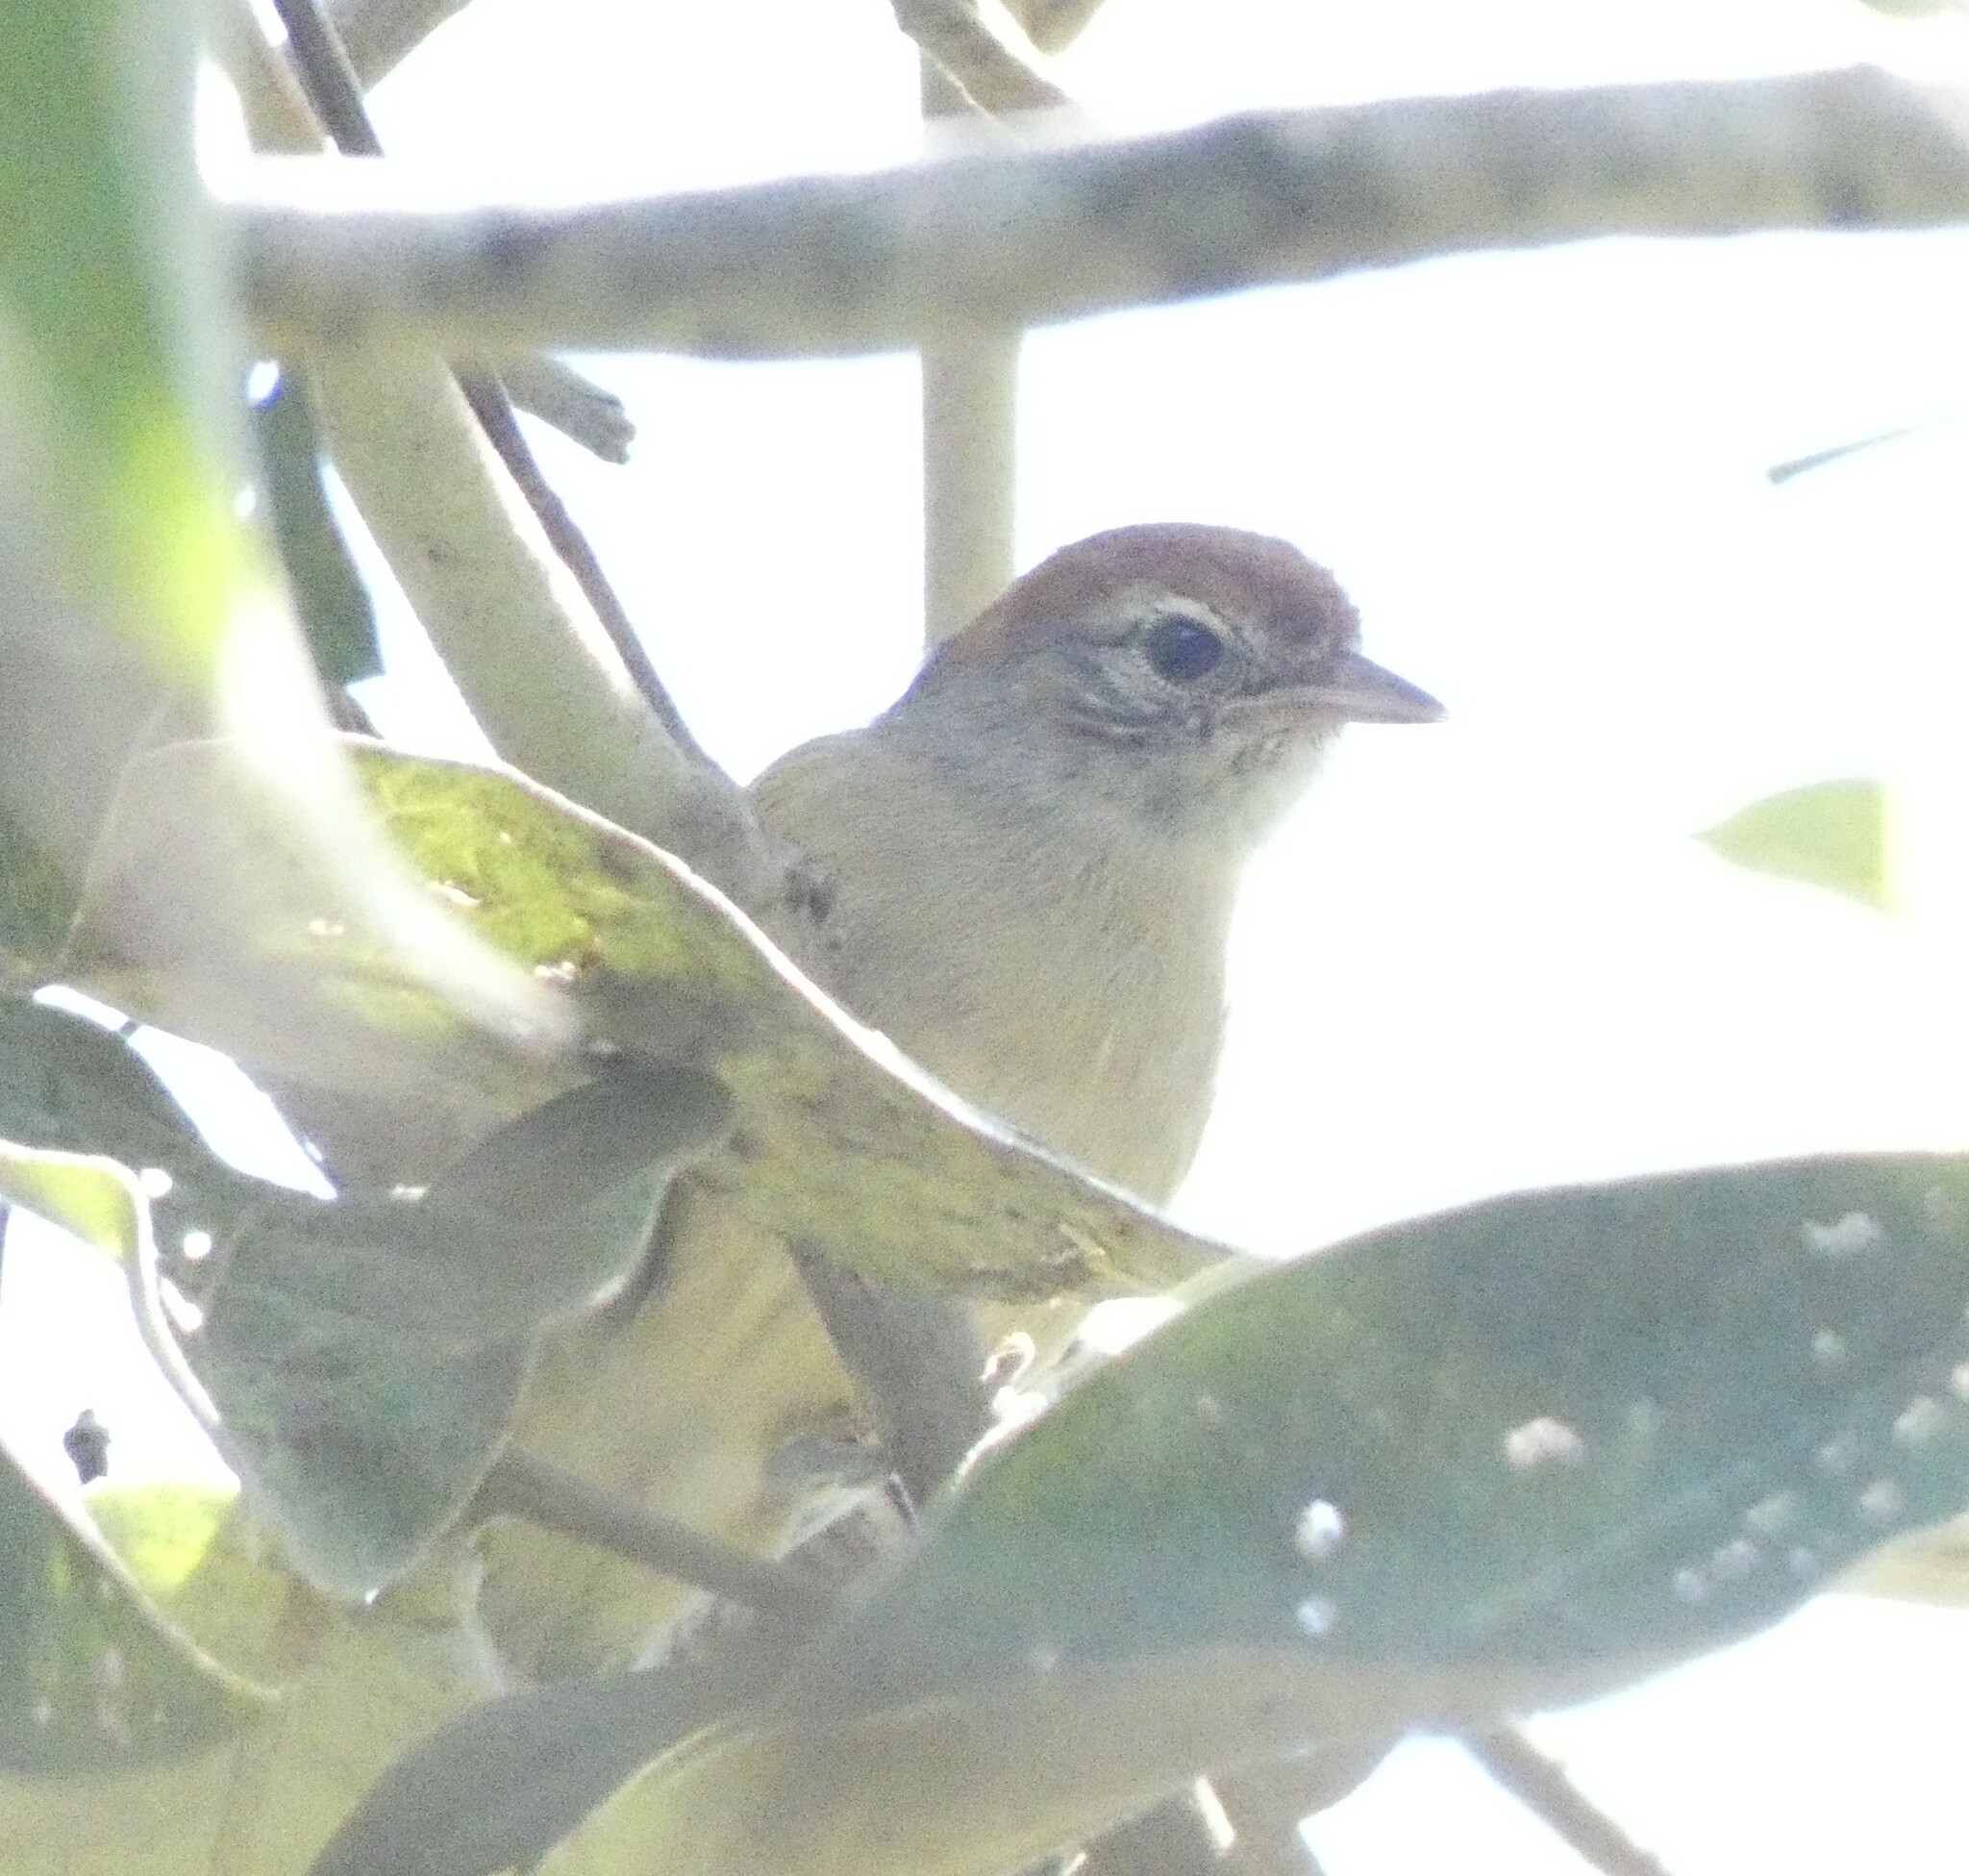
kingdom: Animalia
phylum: Chordata
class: Aves
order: Passeriformes
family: Vireonidae
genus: Hylophilus
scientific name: Hylophilus amaurocephalus
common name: Grey-eyed greenlet
